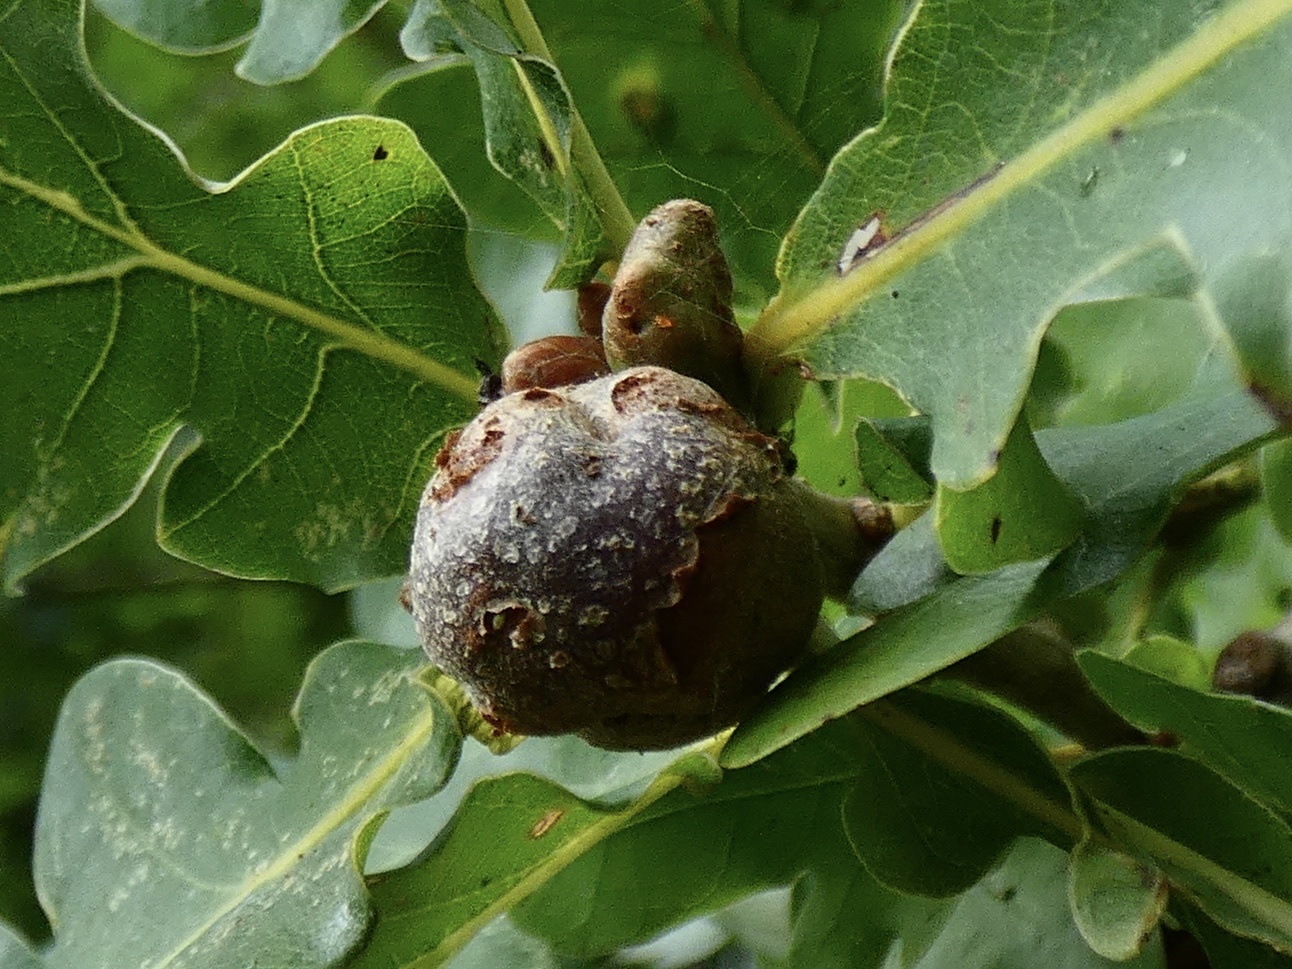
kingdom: Animalia
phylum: Arthropoda
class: Insecta
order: Hymenoptera
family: Cynipidae
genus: Andricus
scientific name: Andricus lignicolus
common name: Cola-nut gall
